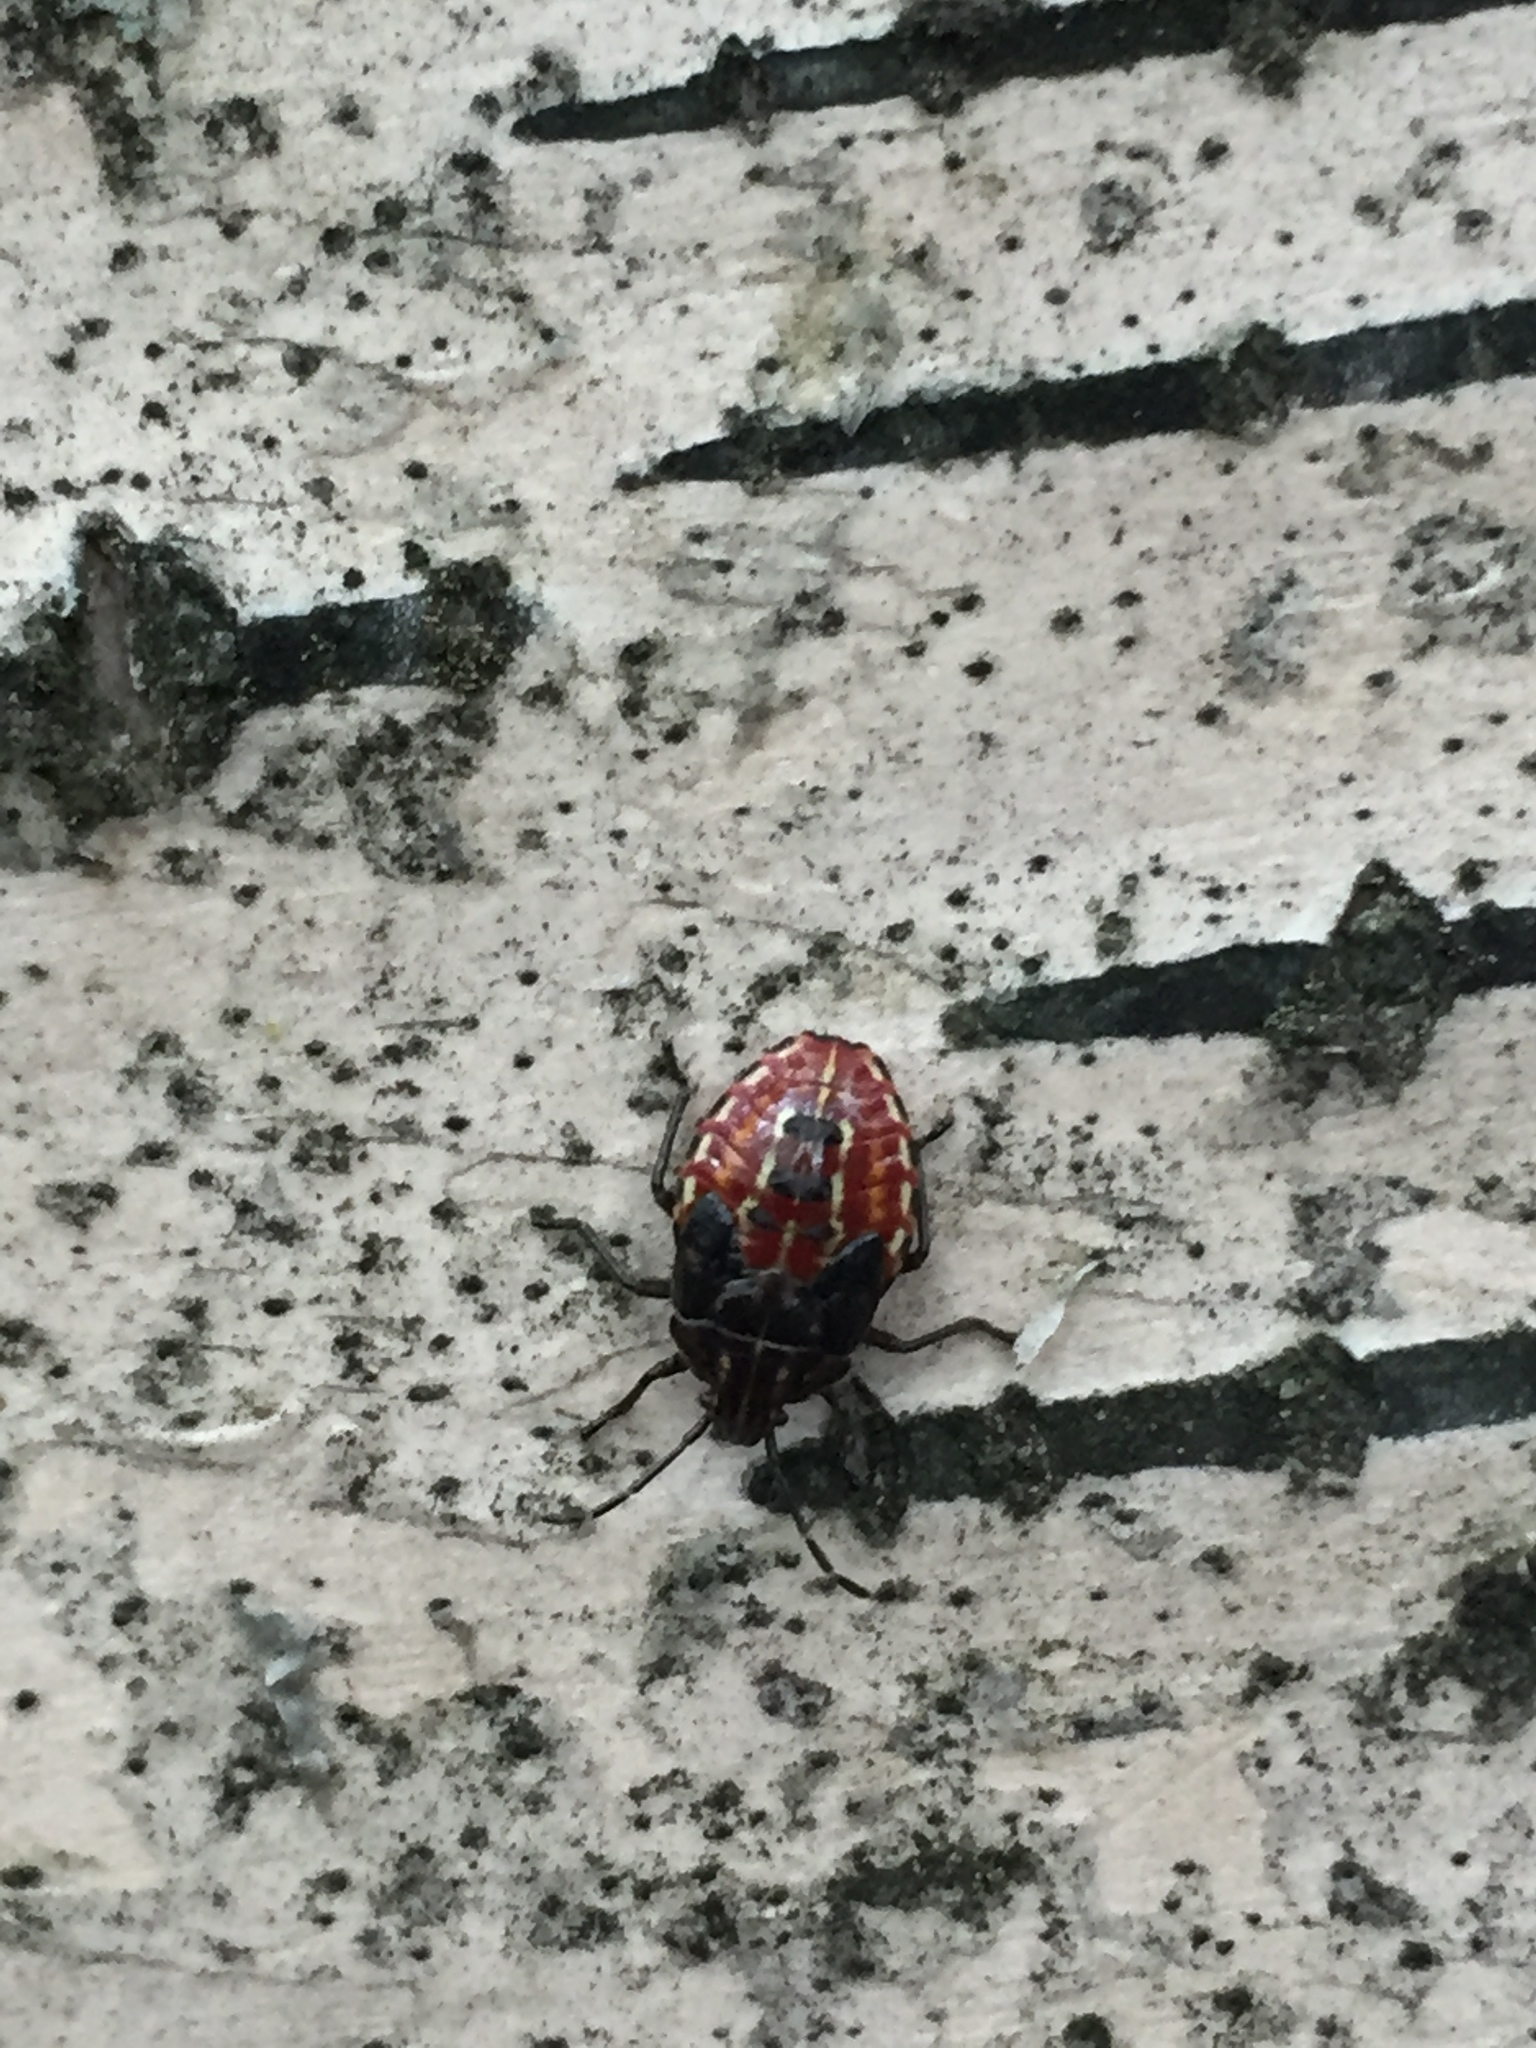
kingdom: Animalia
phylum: Arthropoda
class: Insecta
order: Hemiptera
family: Acanthosomatidae
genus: Elasmucha
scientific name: Elasmucha lateralis
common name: Shield bug
